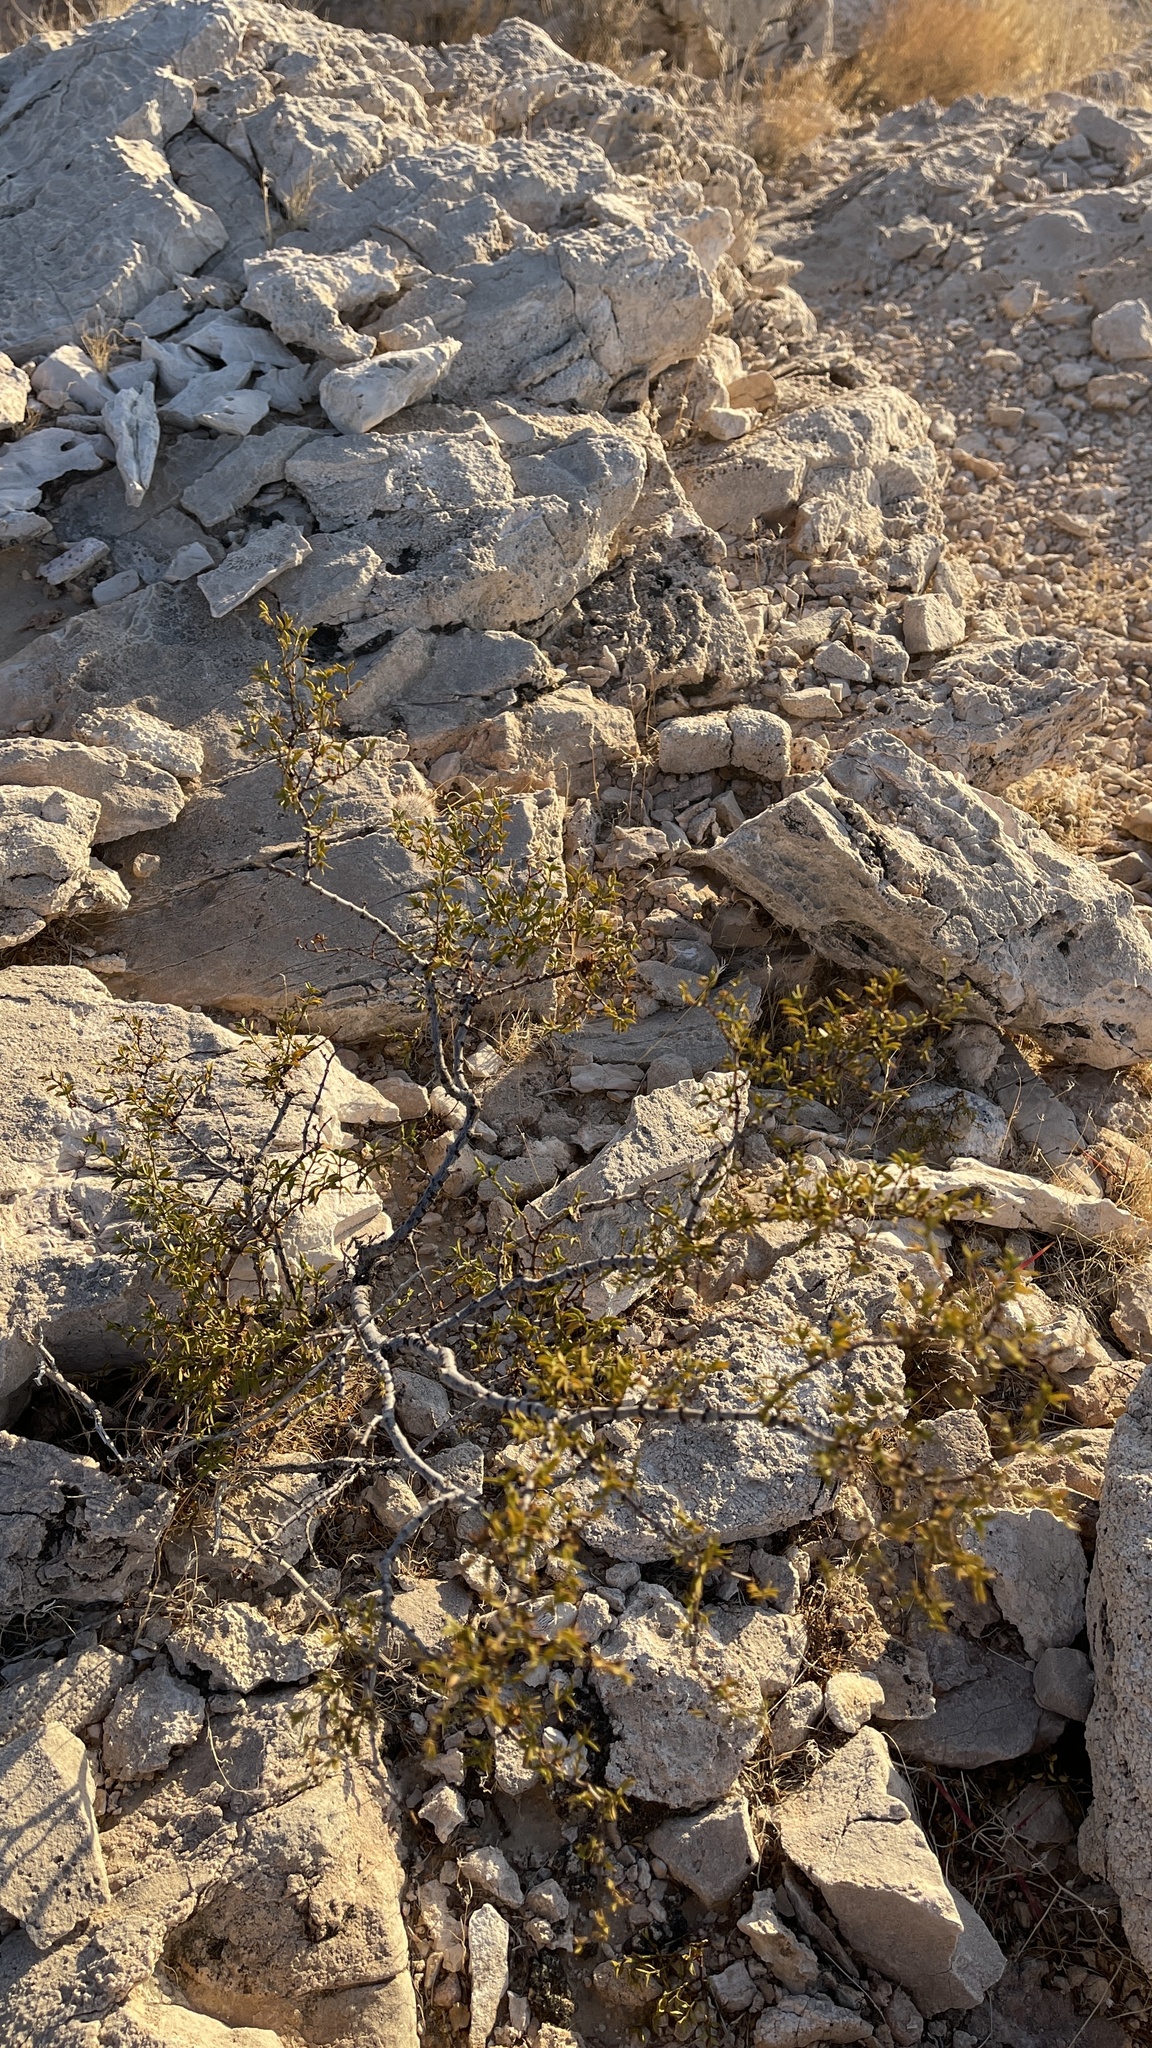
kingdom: Plantae
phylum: Tracheophyta
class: Magnoliopsida
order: Zygophyllales
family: Zygophyllaceae
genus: Larrea
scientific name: Larrea tridentata
